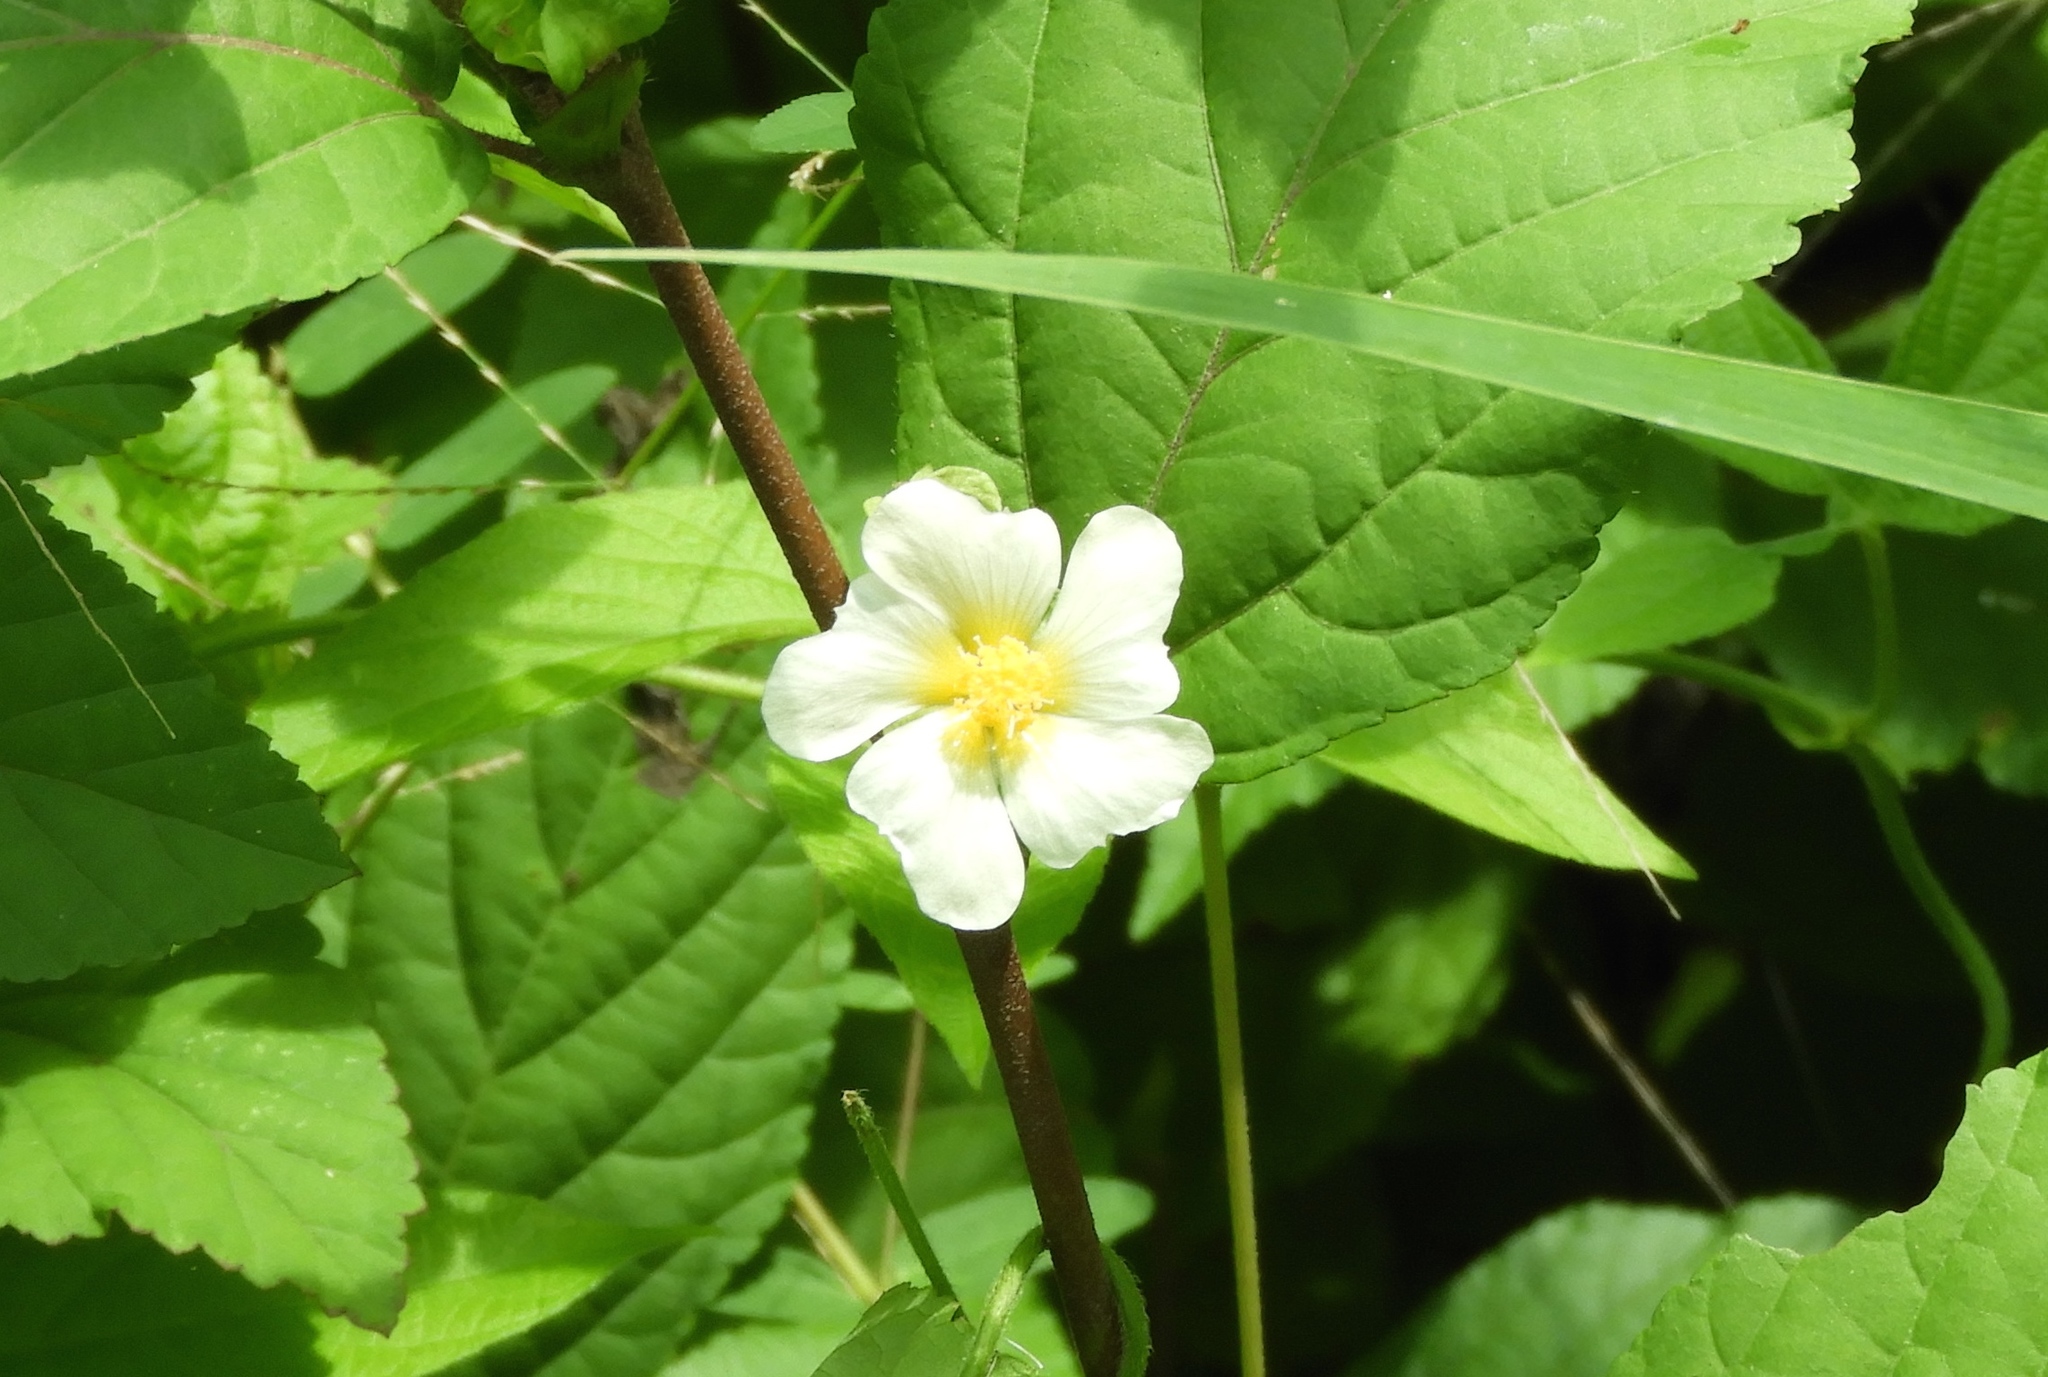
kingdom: Plantae
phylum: Tracheophyta
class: Magnoliopsida
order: Malvales
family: Malvaceae
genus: Sida
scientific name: Sida rhombifolia
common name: Queensland-hemp
